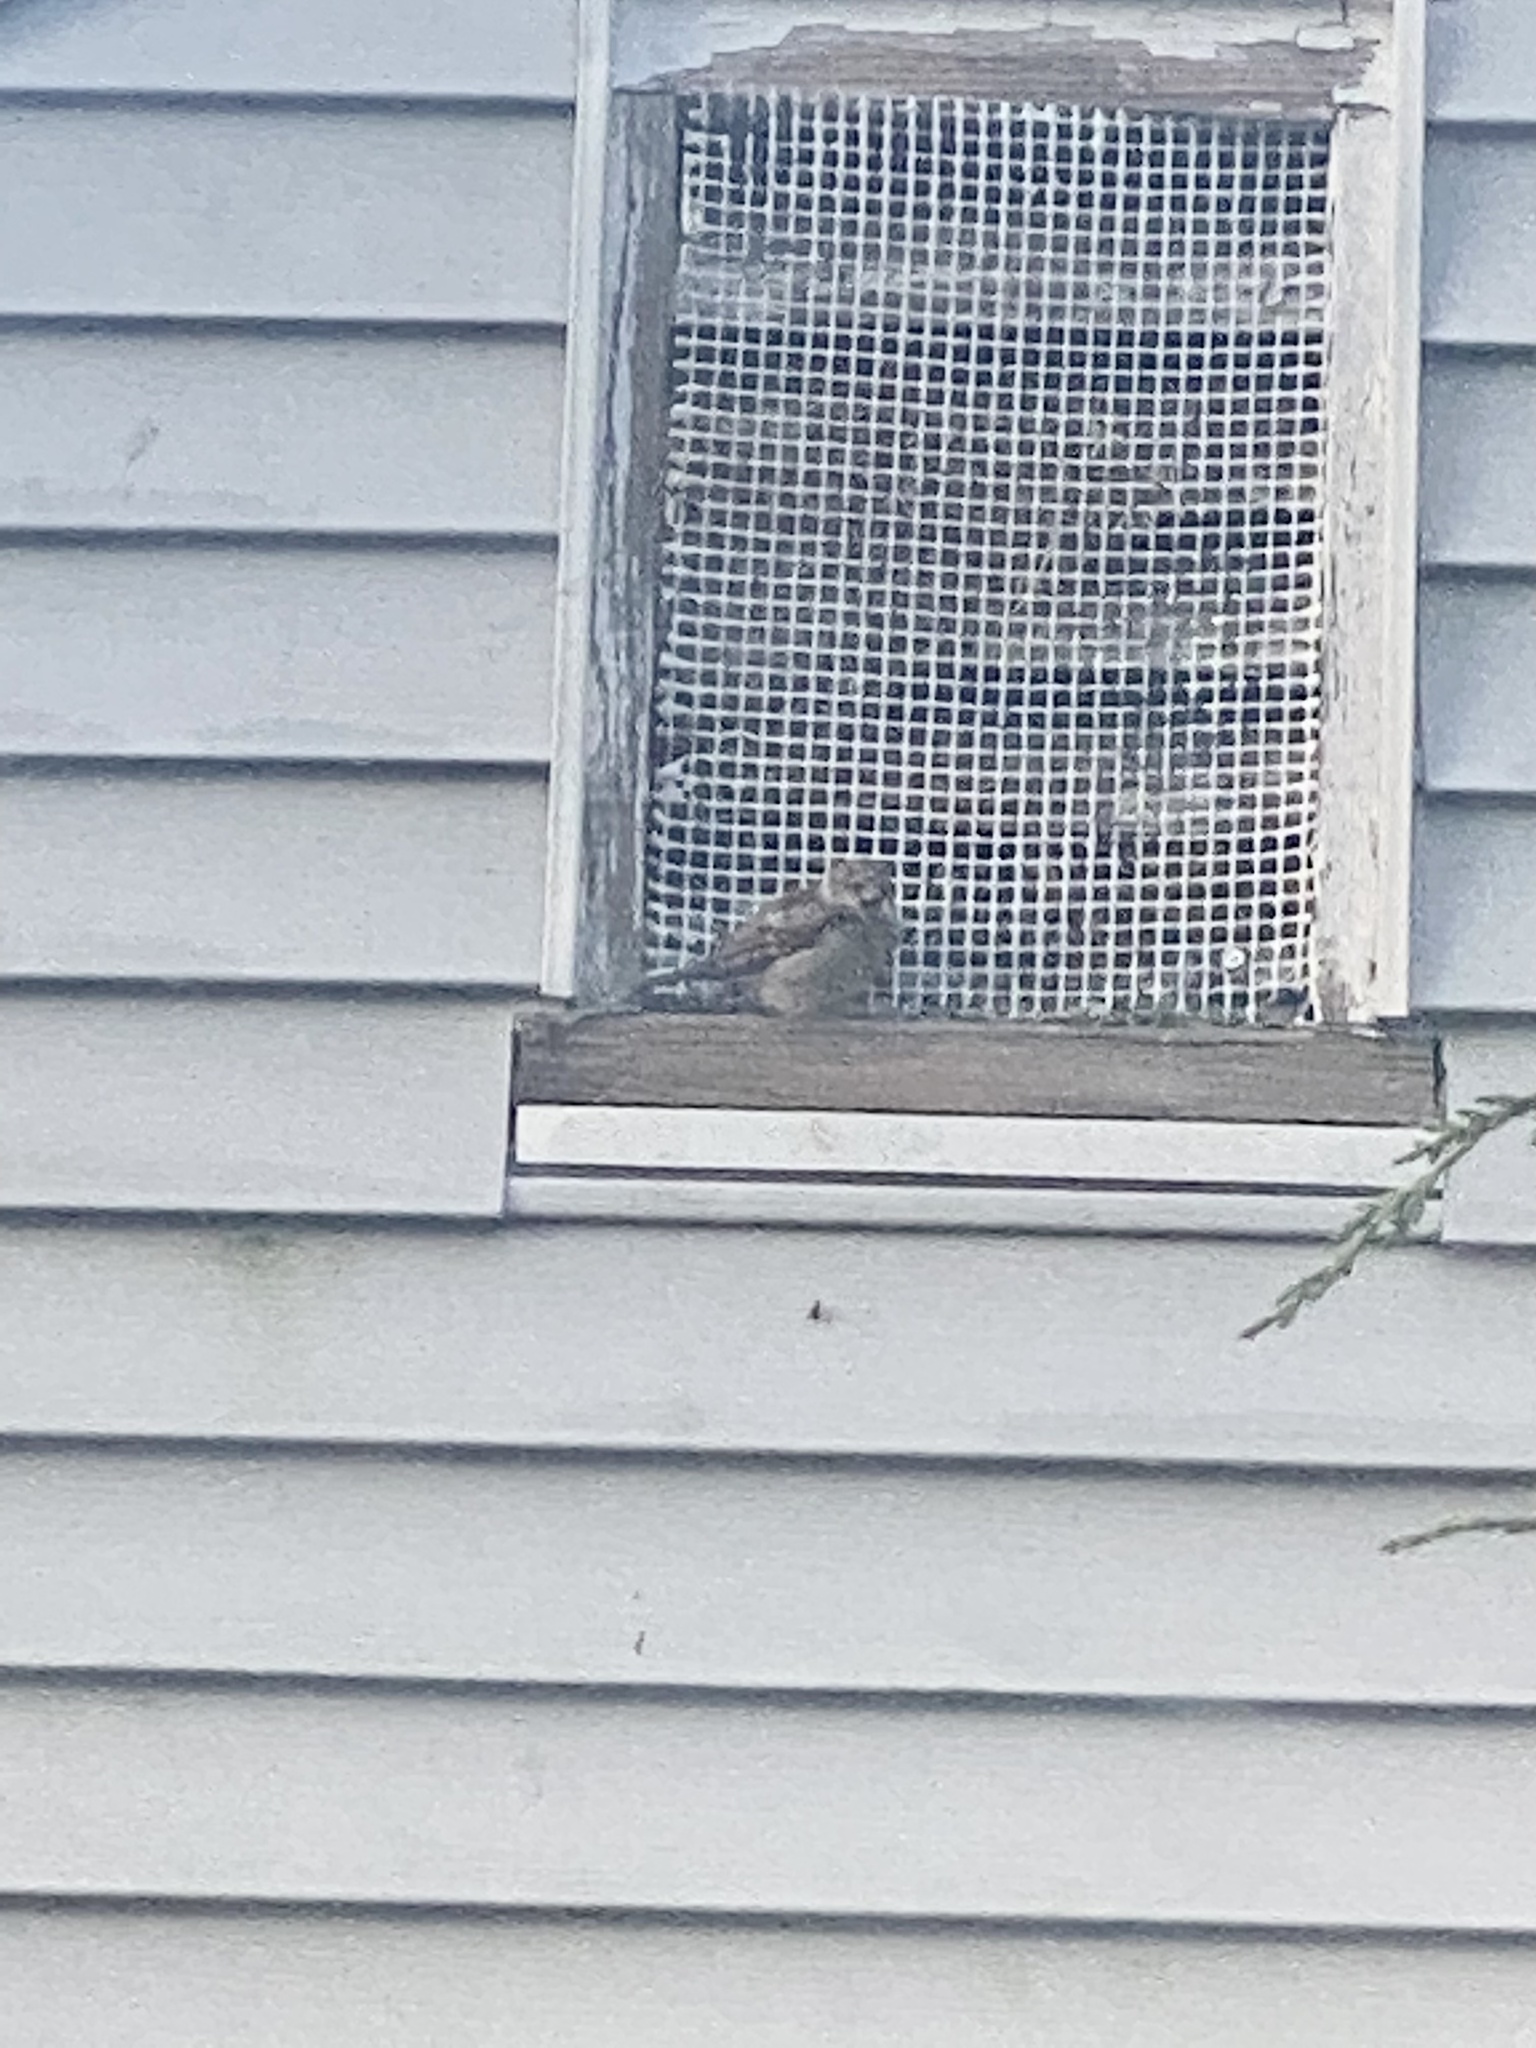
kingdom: Animalia
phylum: Chordata
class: Aves
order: Passeriformes
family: Passeridae
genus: Passer
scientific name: Passer domesticus
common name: House sparrow
